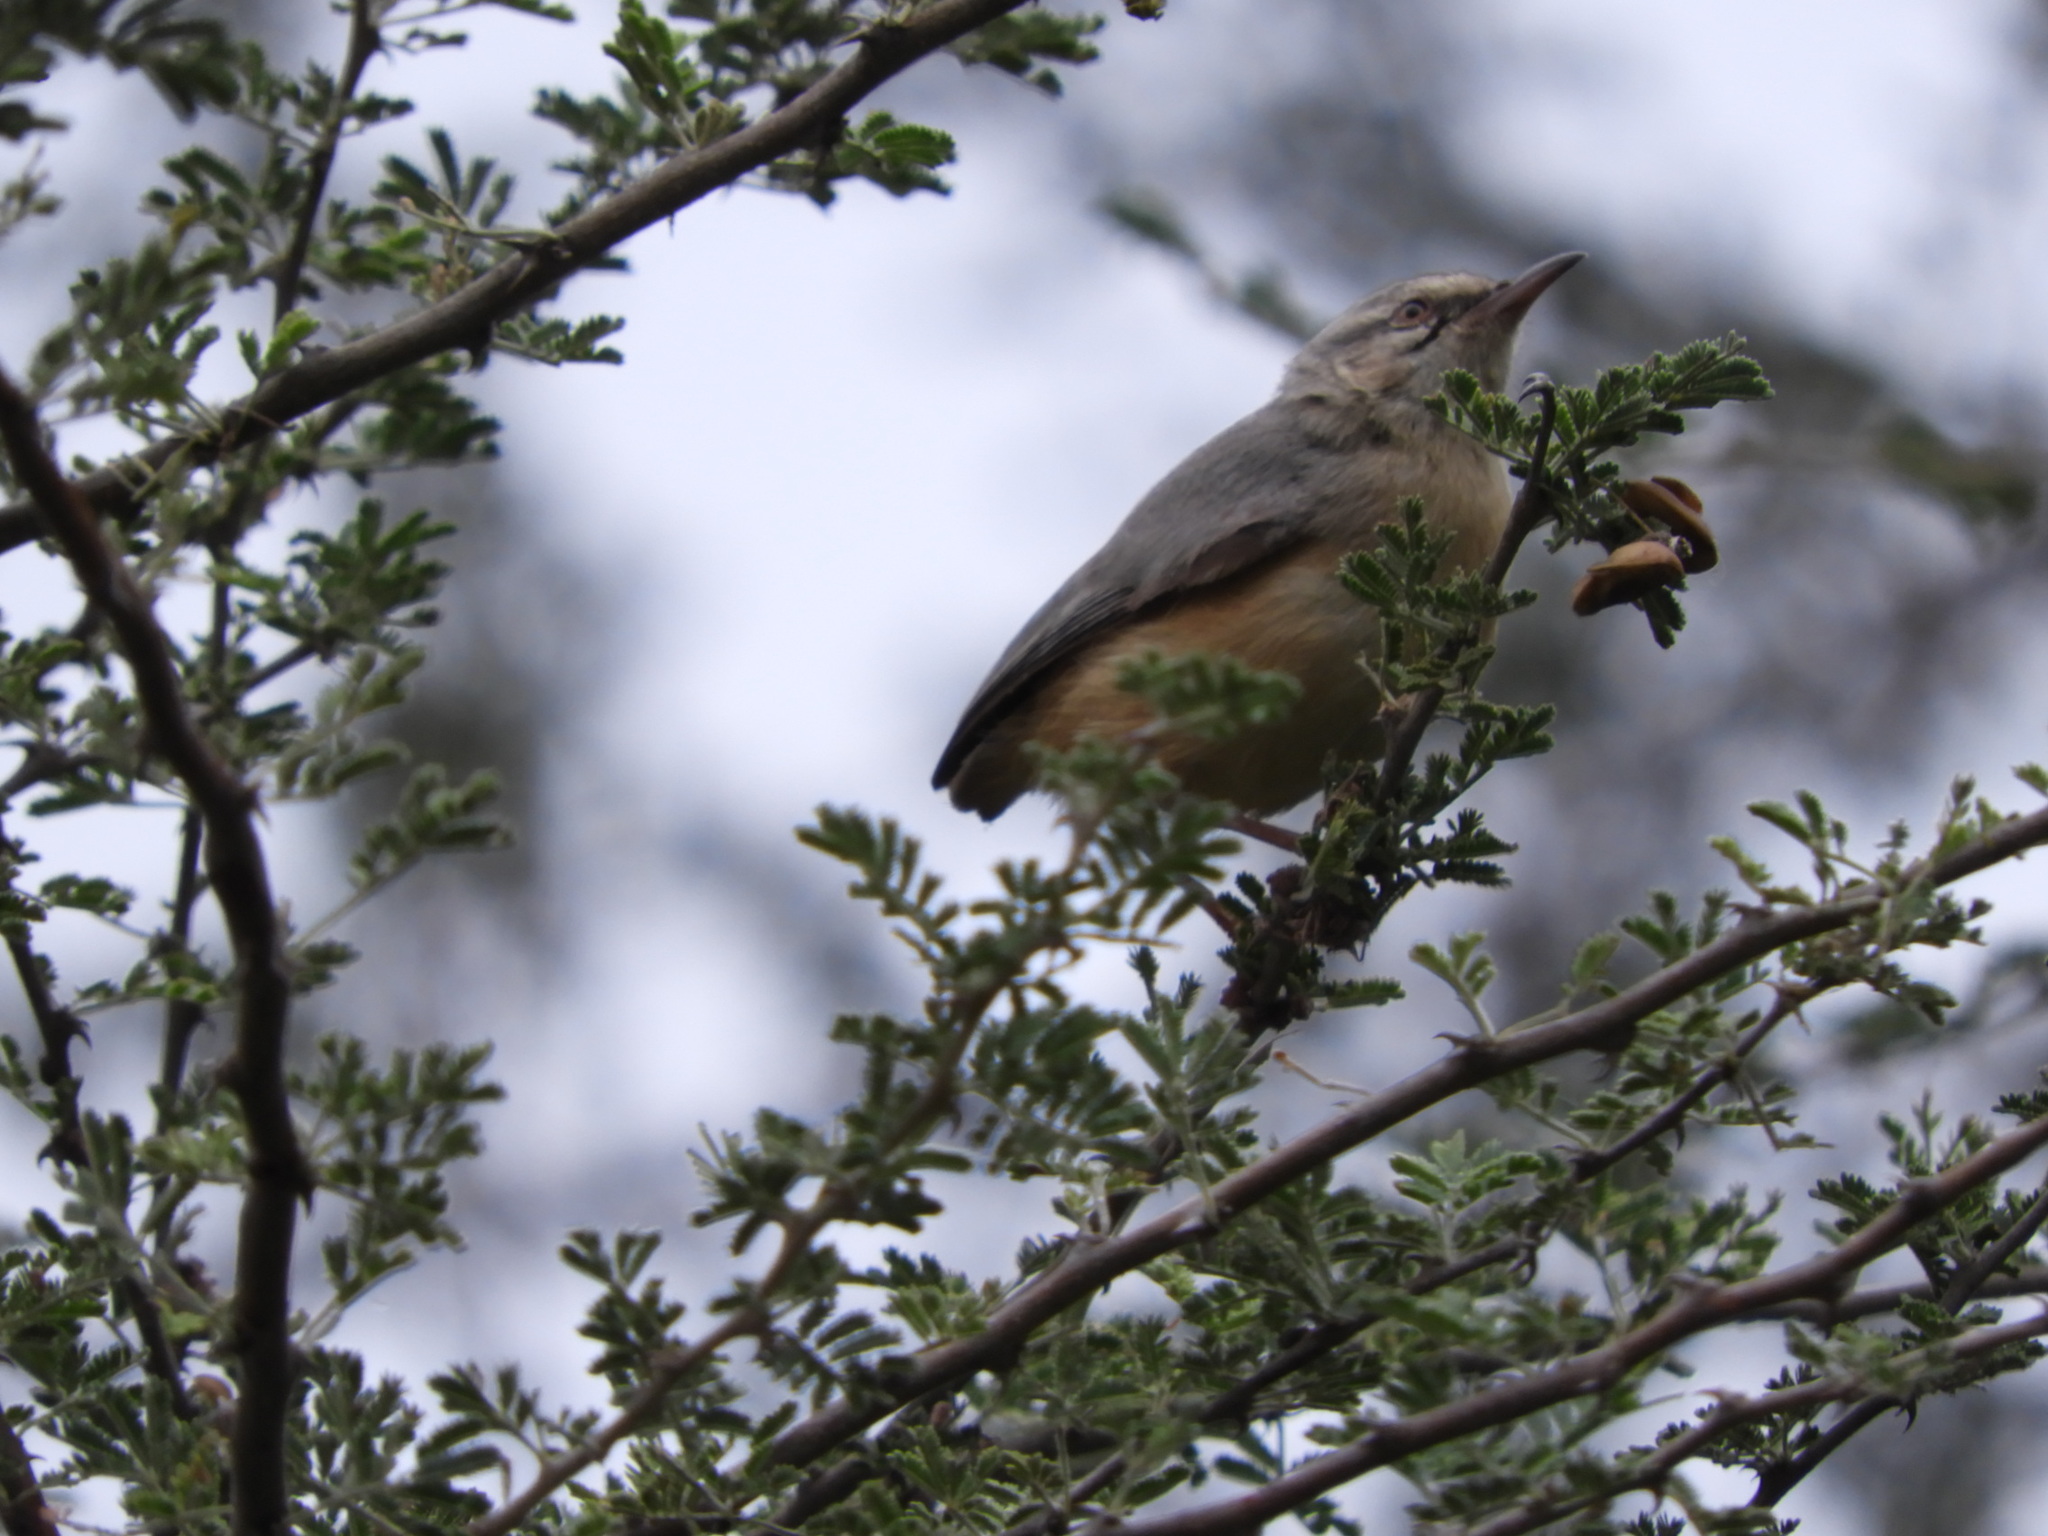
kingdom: Animalia
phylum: Chordata
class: Aves
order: Passeriformes
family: Macrosphenidae
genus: Sylvietta
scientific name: Sylvietta rufescens
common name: Long-billed crombec
